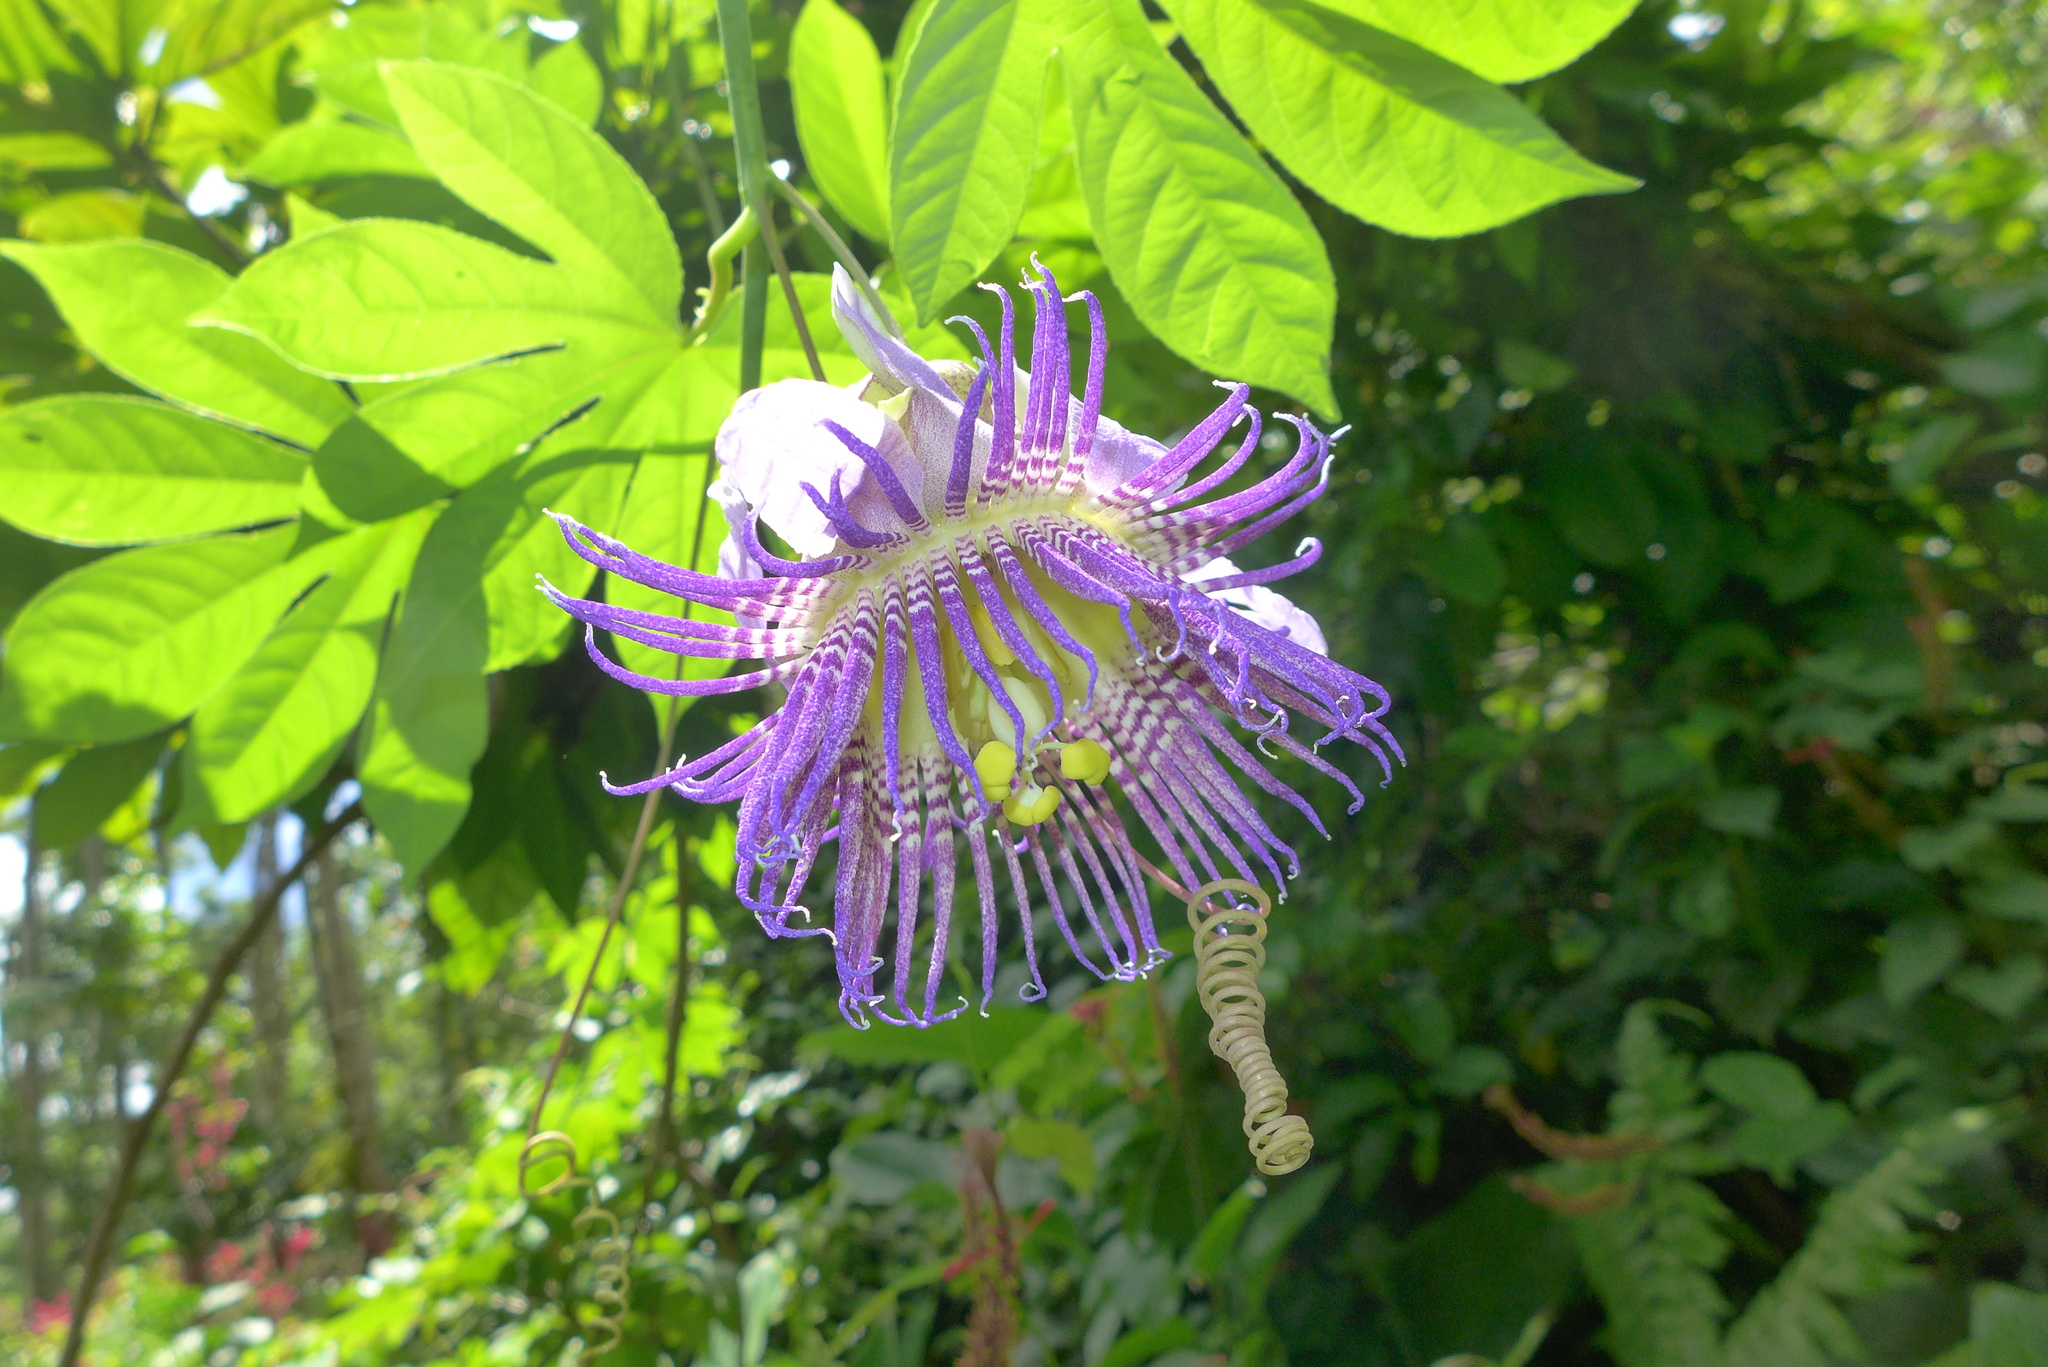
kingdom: Plantae
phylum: Tracheophyta
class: Magnoliopsida
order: Malpighiales
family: Passifloraceae
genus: Passiflora
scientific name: Passiflora serratodigitata
